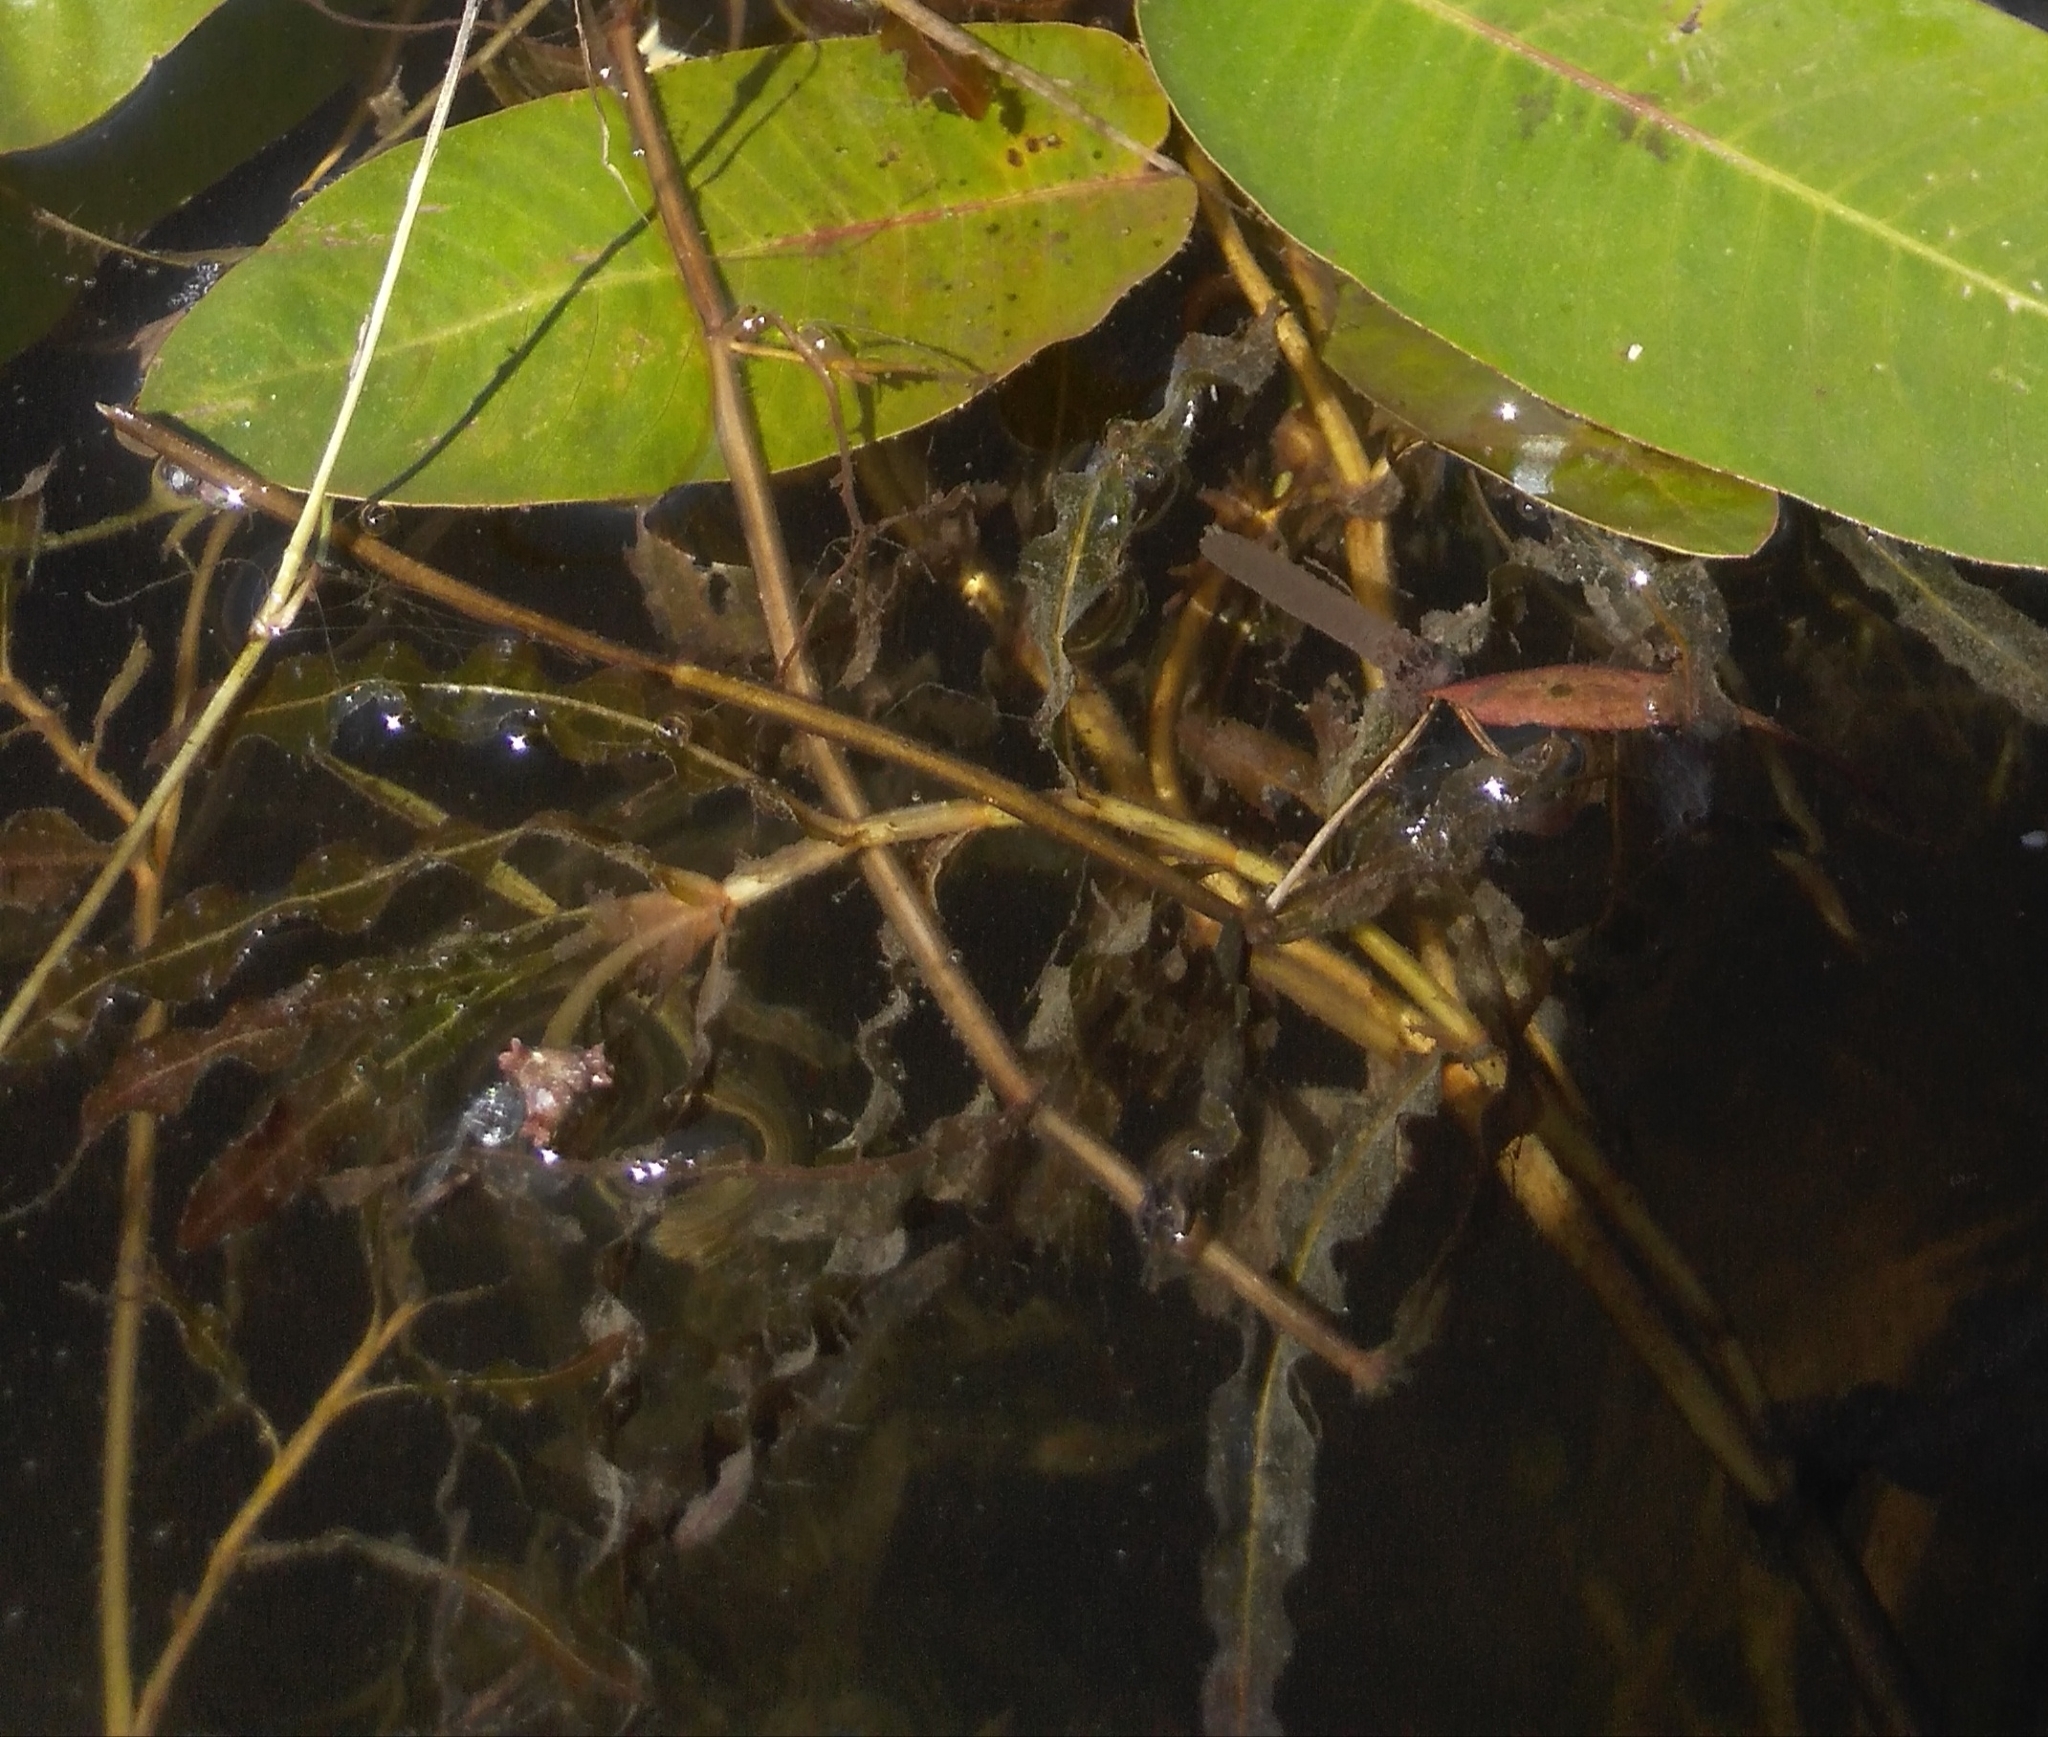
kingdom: Plantae
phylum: Tracheophyta
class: Liliopsida
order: Alismatales
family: Potamogetonaceae
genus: Potamogeton
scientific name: Potamogeton crispus
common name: Curled pondweed
